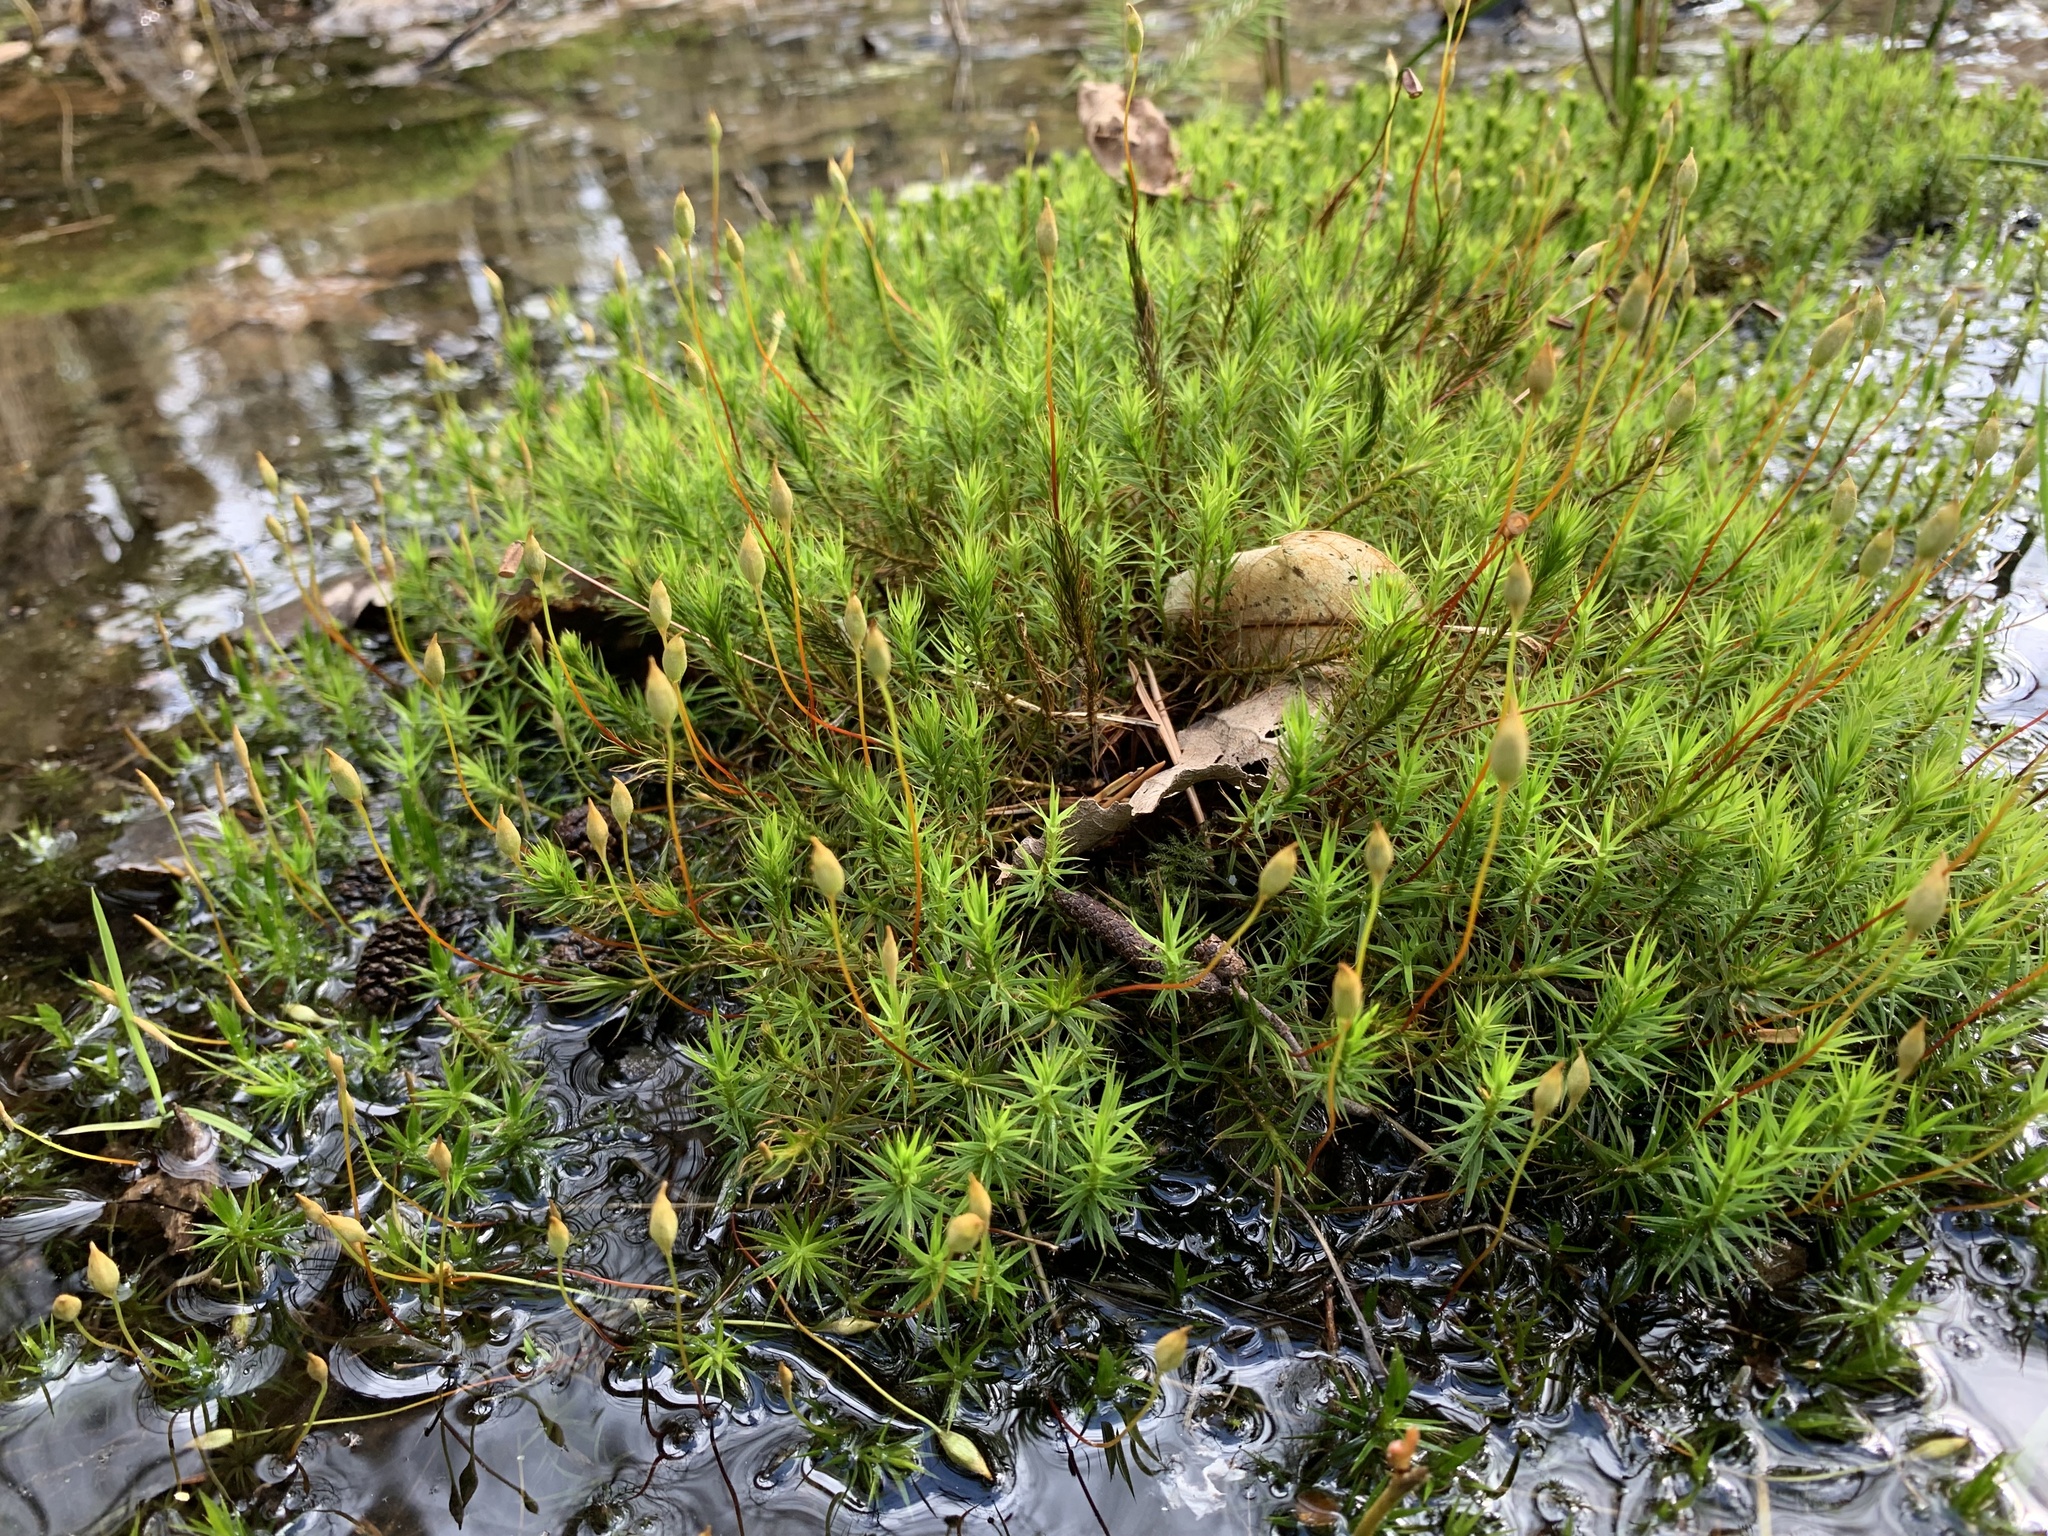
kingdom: Plantae
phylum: Bryophyta
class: Polytrichopsida
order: Polytrichales
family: Polytrichaceae
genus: Polytrichum
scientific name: Polytrichum formosum
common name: Bank haircap moss
